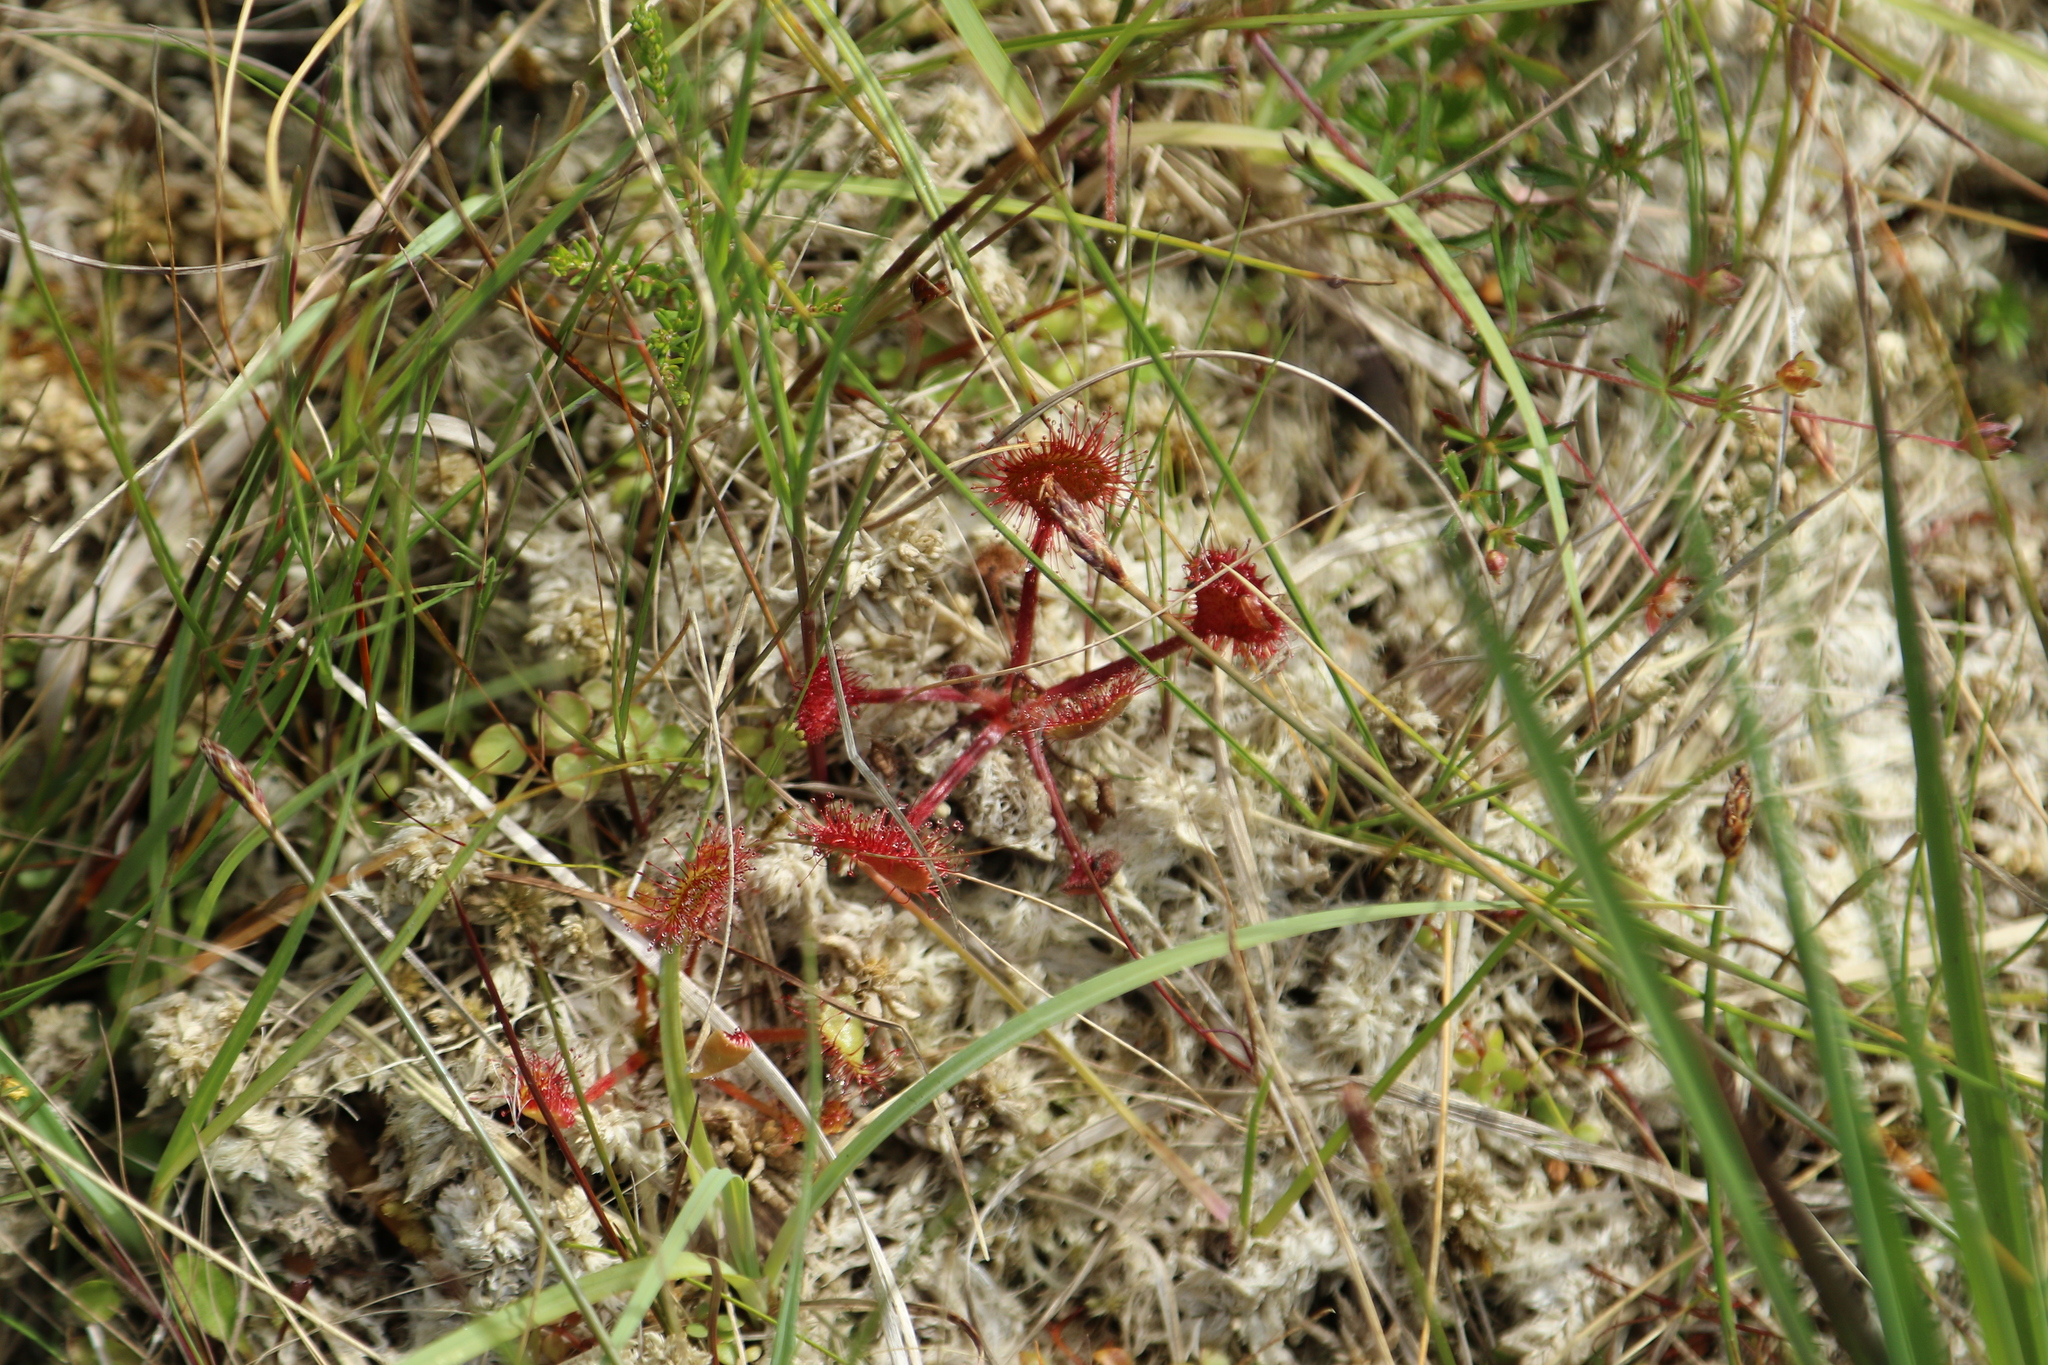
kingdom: Plantae
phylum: Tracheophyta
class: Magnoliopsida
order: Caryophyllales
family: Droseraceae
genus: Drosera
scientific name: Drosera rotundifolia
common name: Round-leaved sundew
